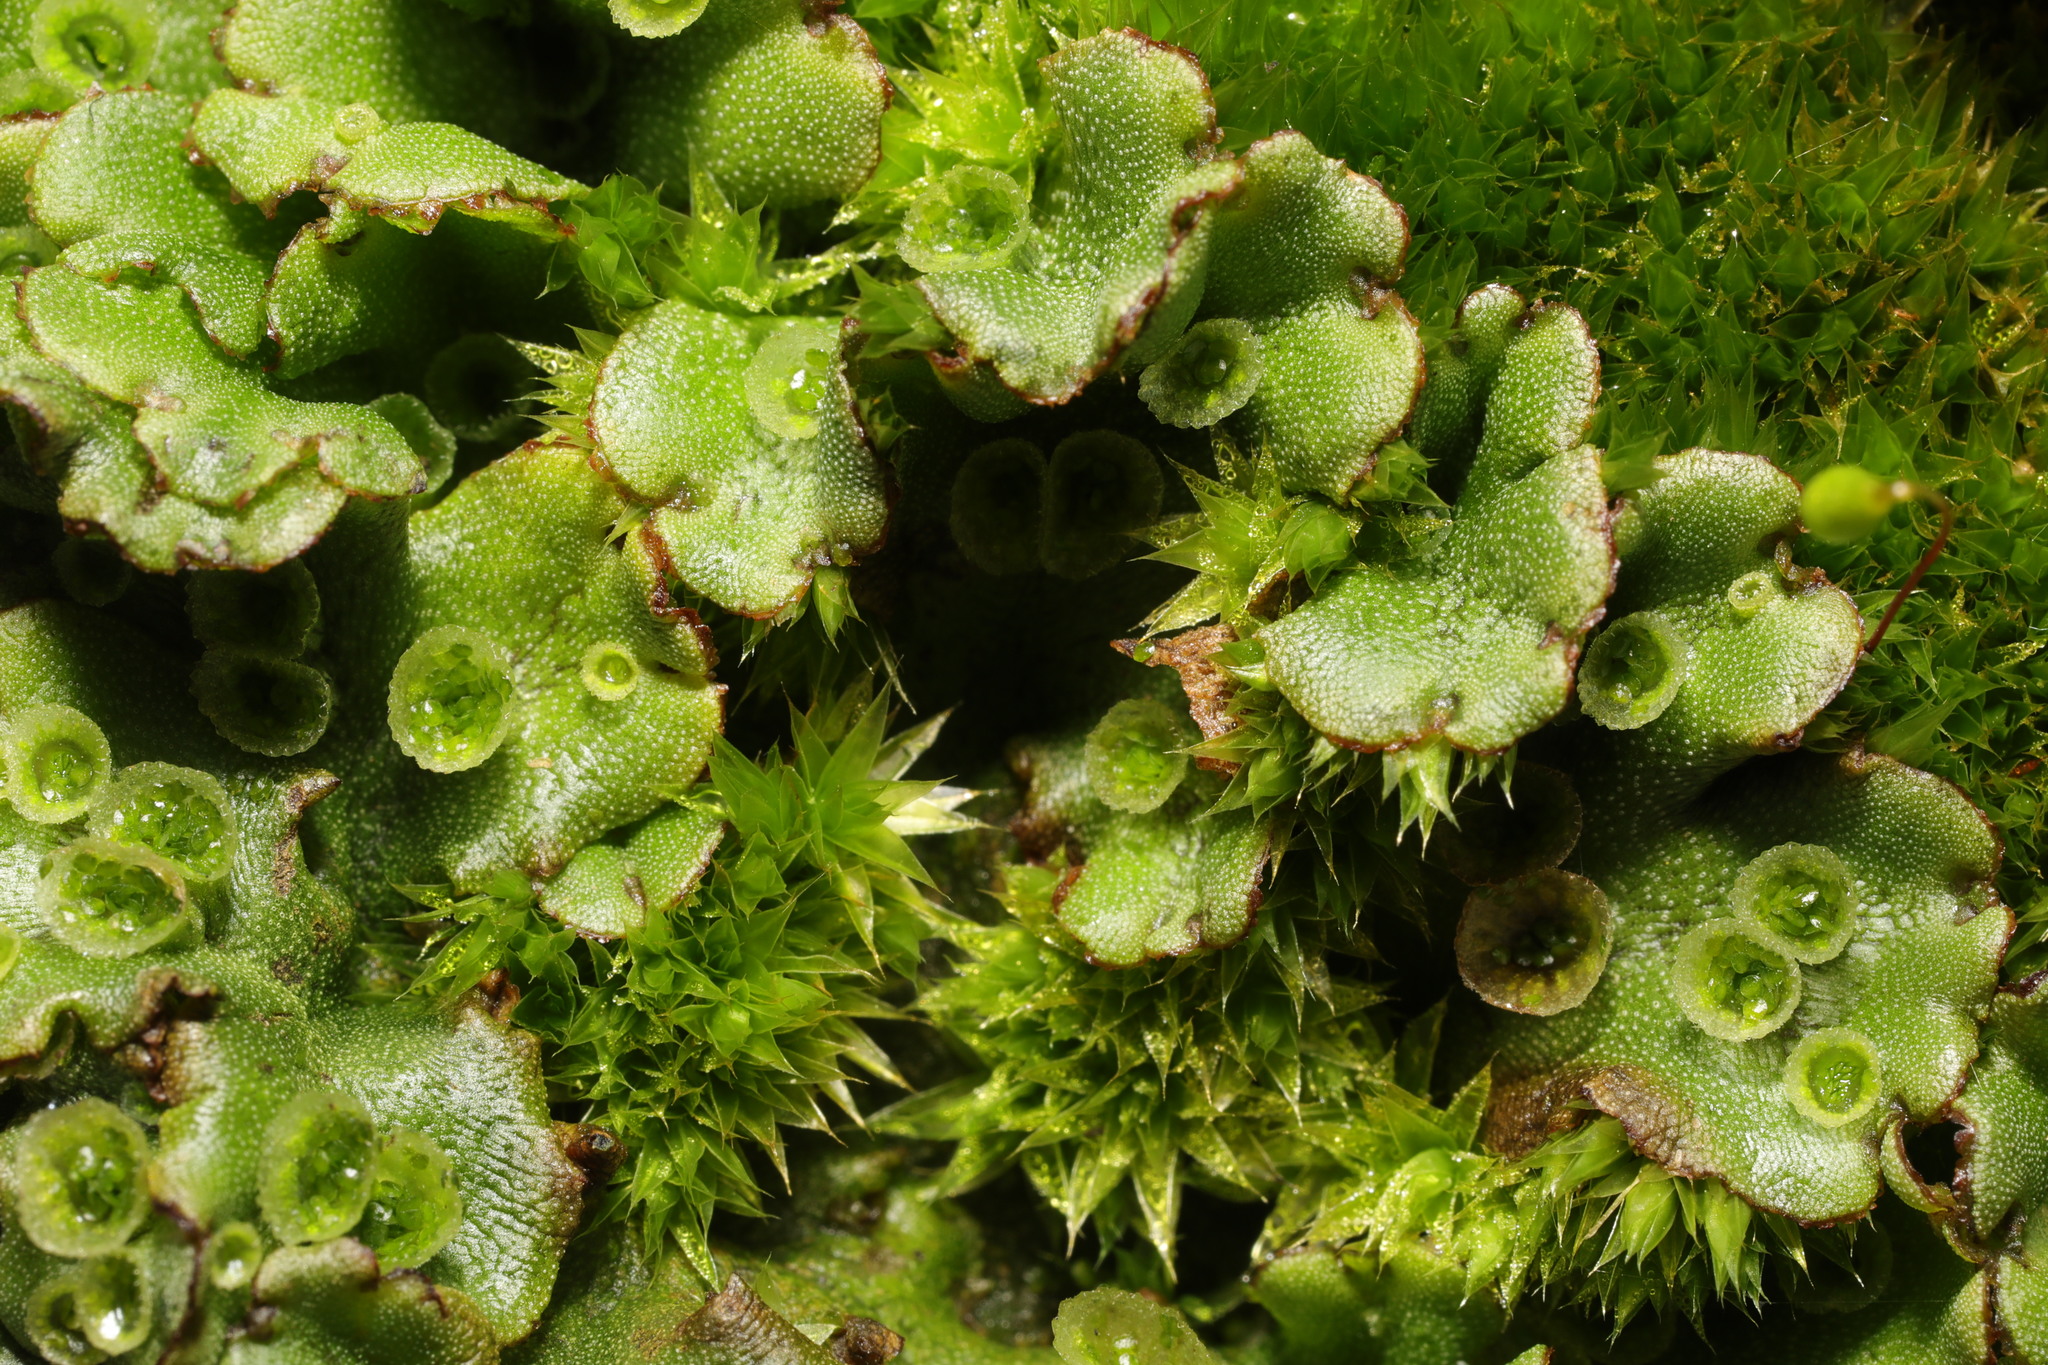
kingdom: Plantae
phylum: Marchantiophyta
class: Marchantiopsida
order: Marchantiales
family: Marchantiaceae
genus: Marchantia
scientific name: Marchantia polymorpha
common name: Common liverwort
